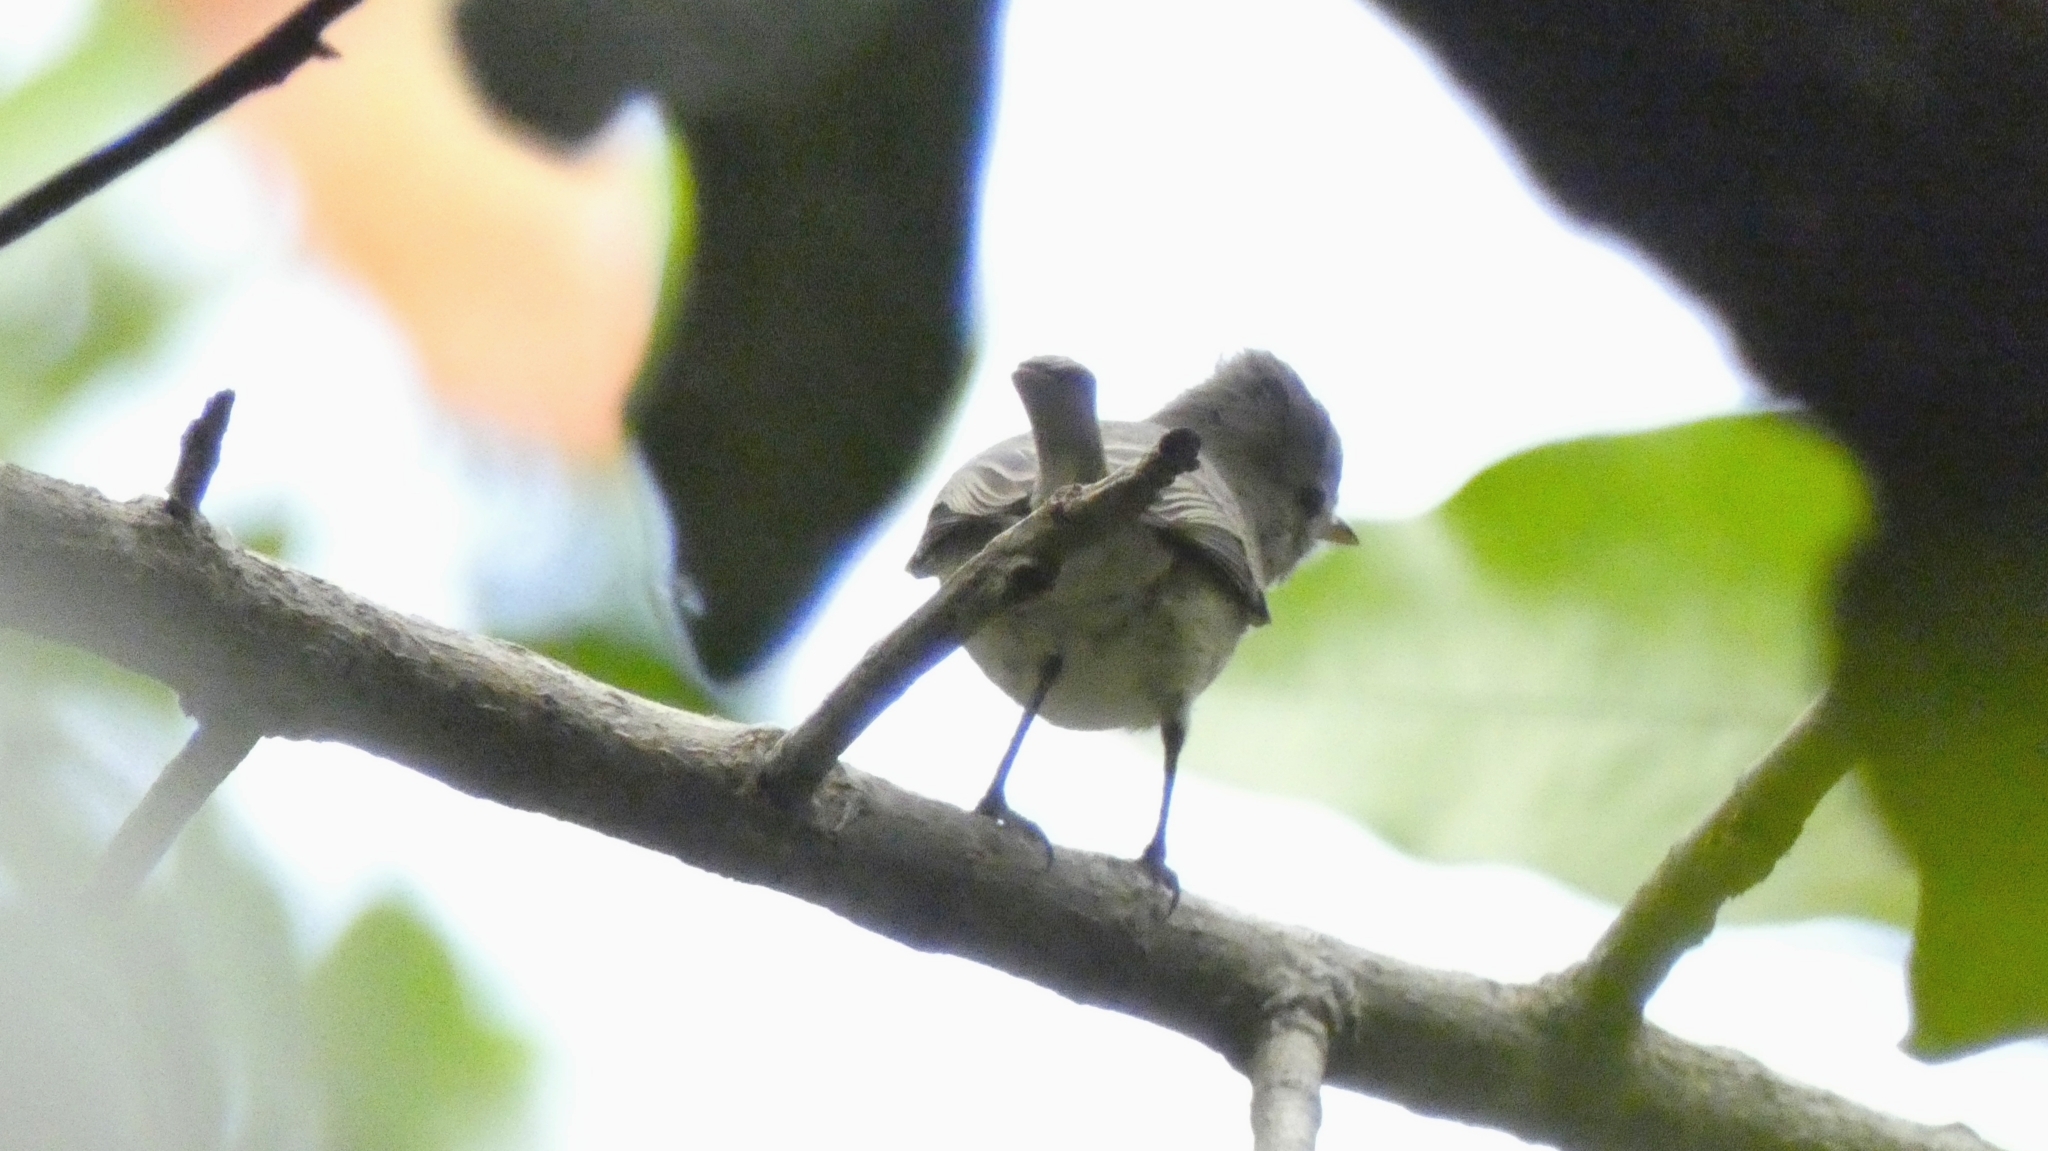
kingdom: Animalia
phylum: Chordata
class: Aves
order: Passeriformes
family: Tyrannidae
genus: Camptostoma
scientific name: Camptostoma imberbe
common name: Northern beardless-tyrannulet
